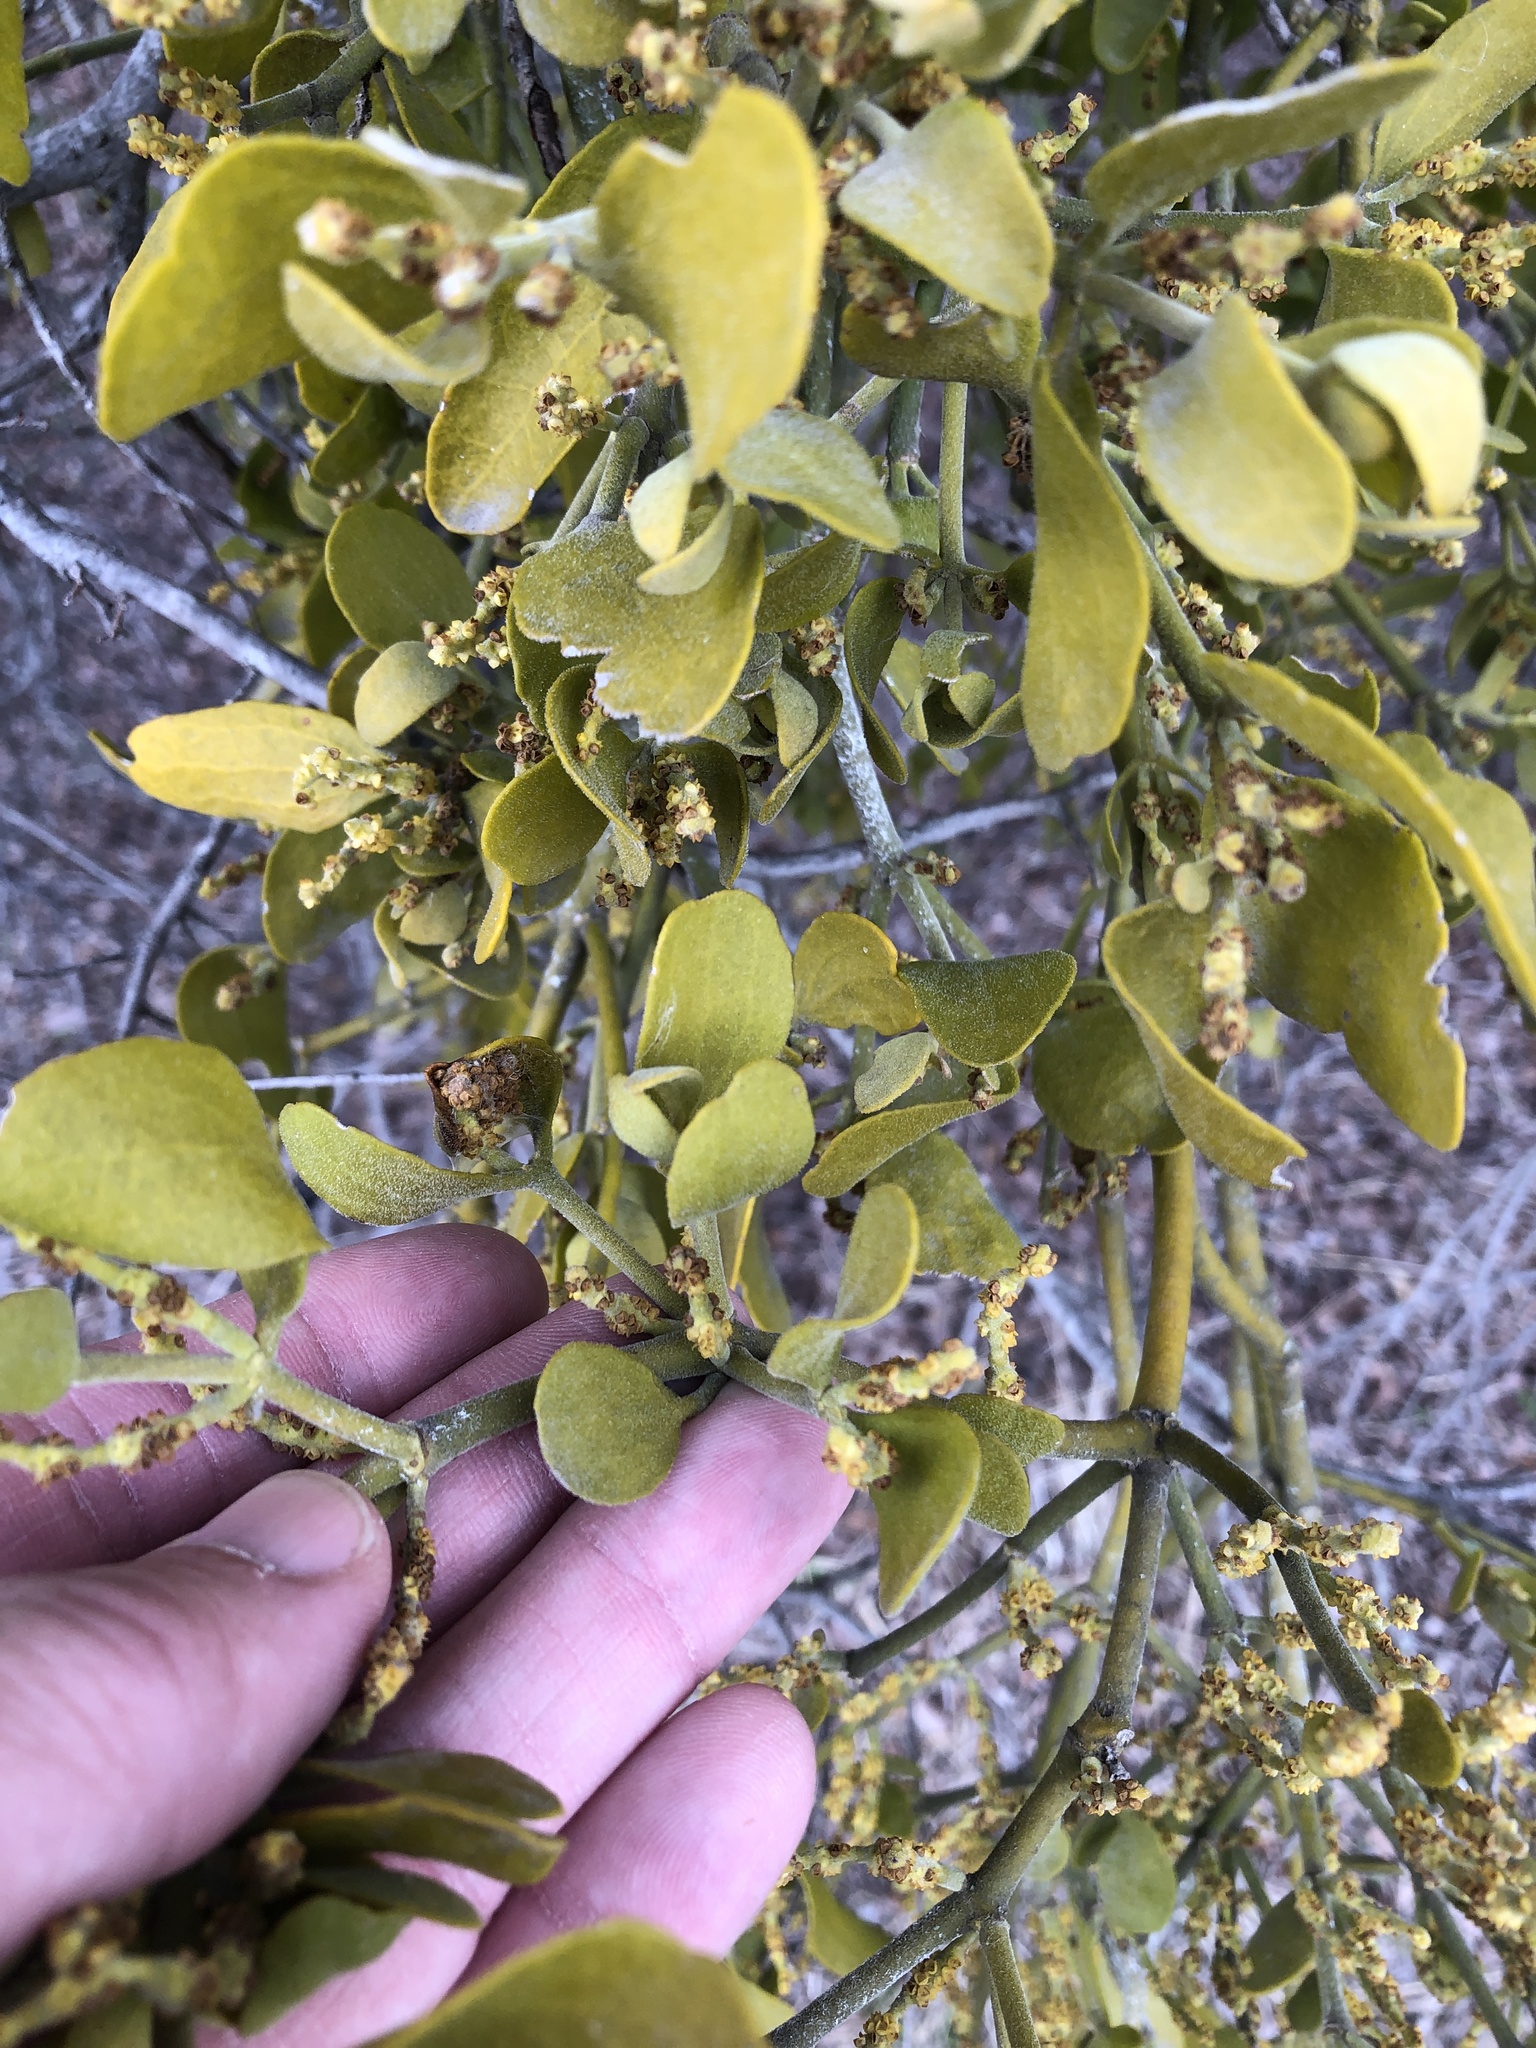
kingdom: Plantae
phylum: Tracheophyta
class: Magnoliopsida
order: Santalales
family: Viscaceae
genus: Phoradendron
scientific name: Phoradendron leucarpum
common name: Pacific mistletoe
